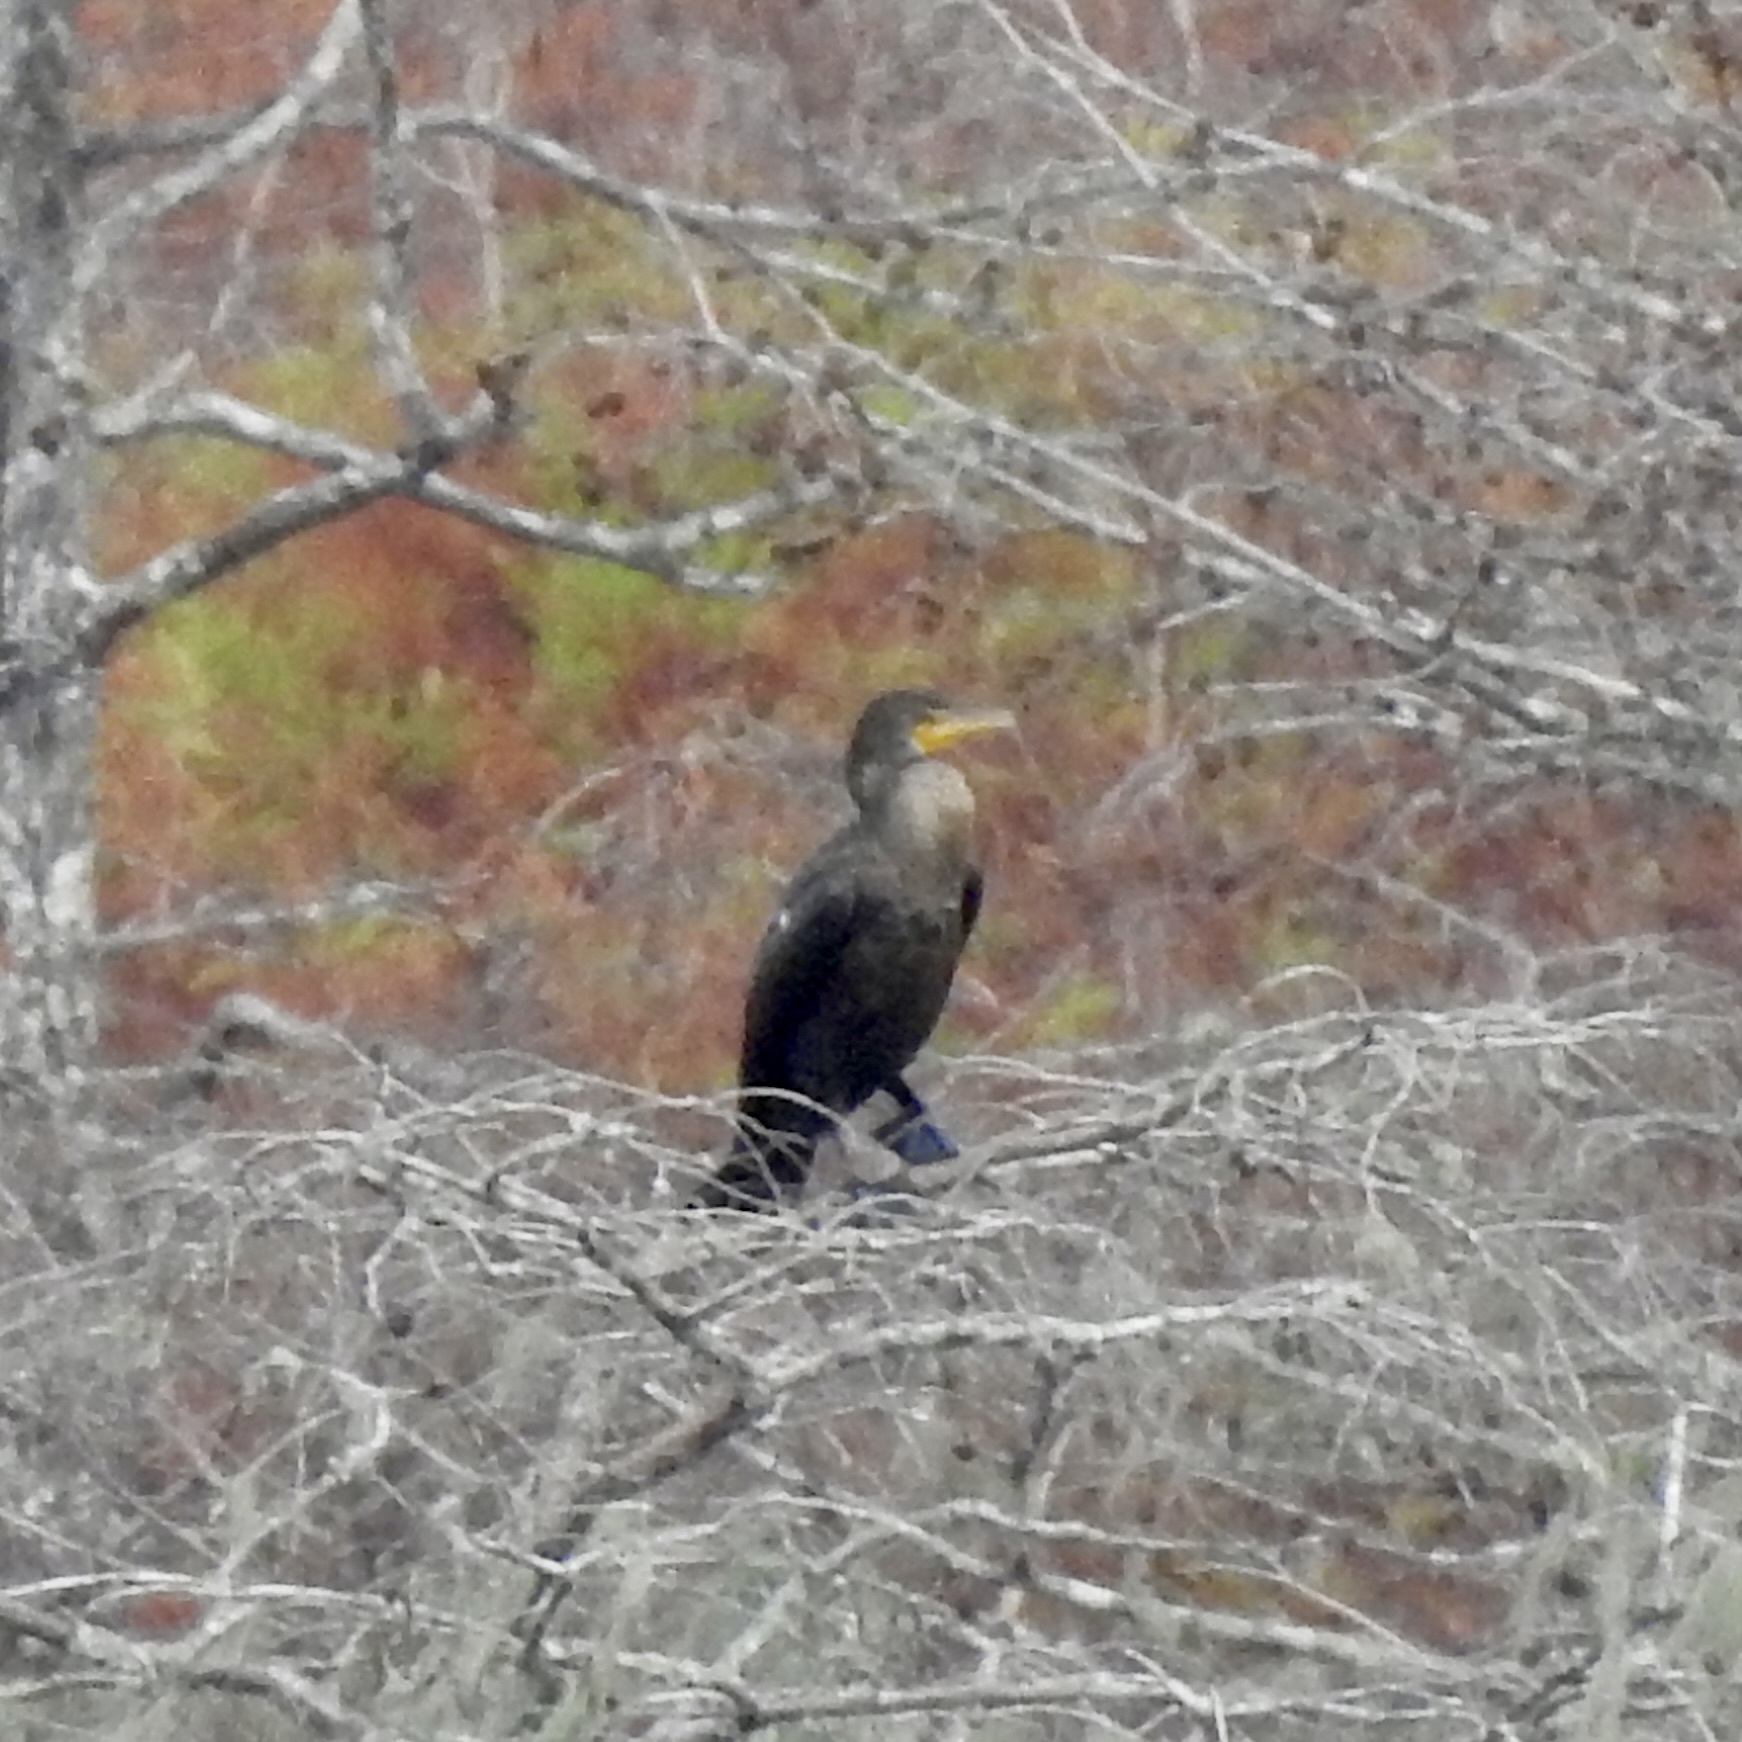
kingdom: Animalia
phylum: Chordata
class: Aves
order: Suliformes
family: Phalacrocoracidae
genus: Phalacrocorax
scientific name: Phalacrocorax auritus
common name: Double-crested cormorant
